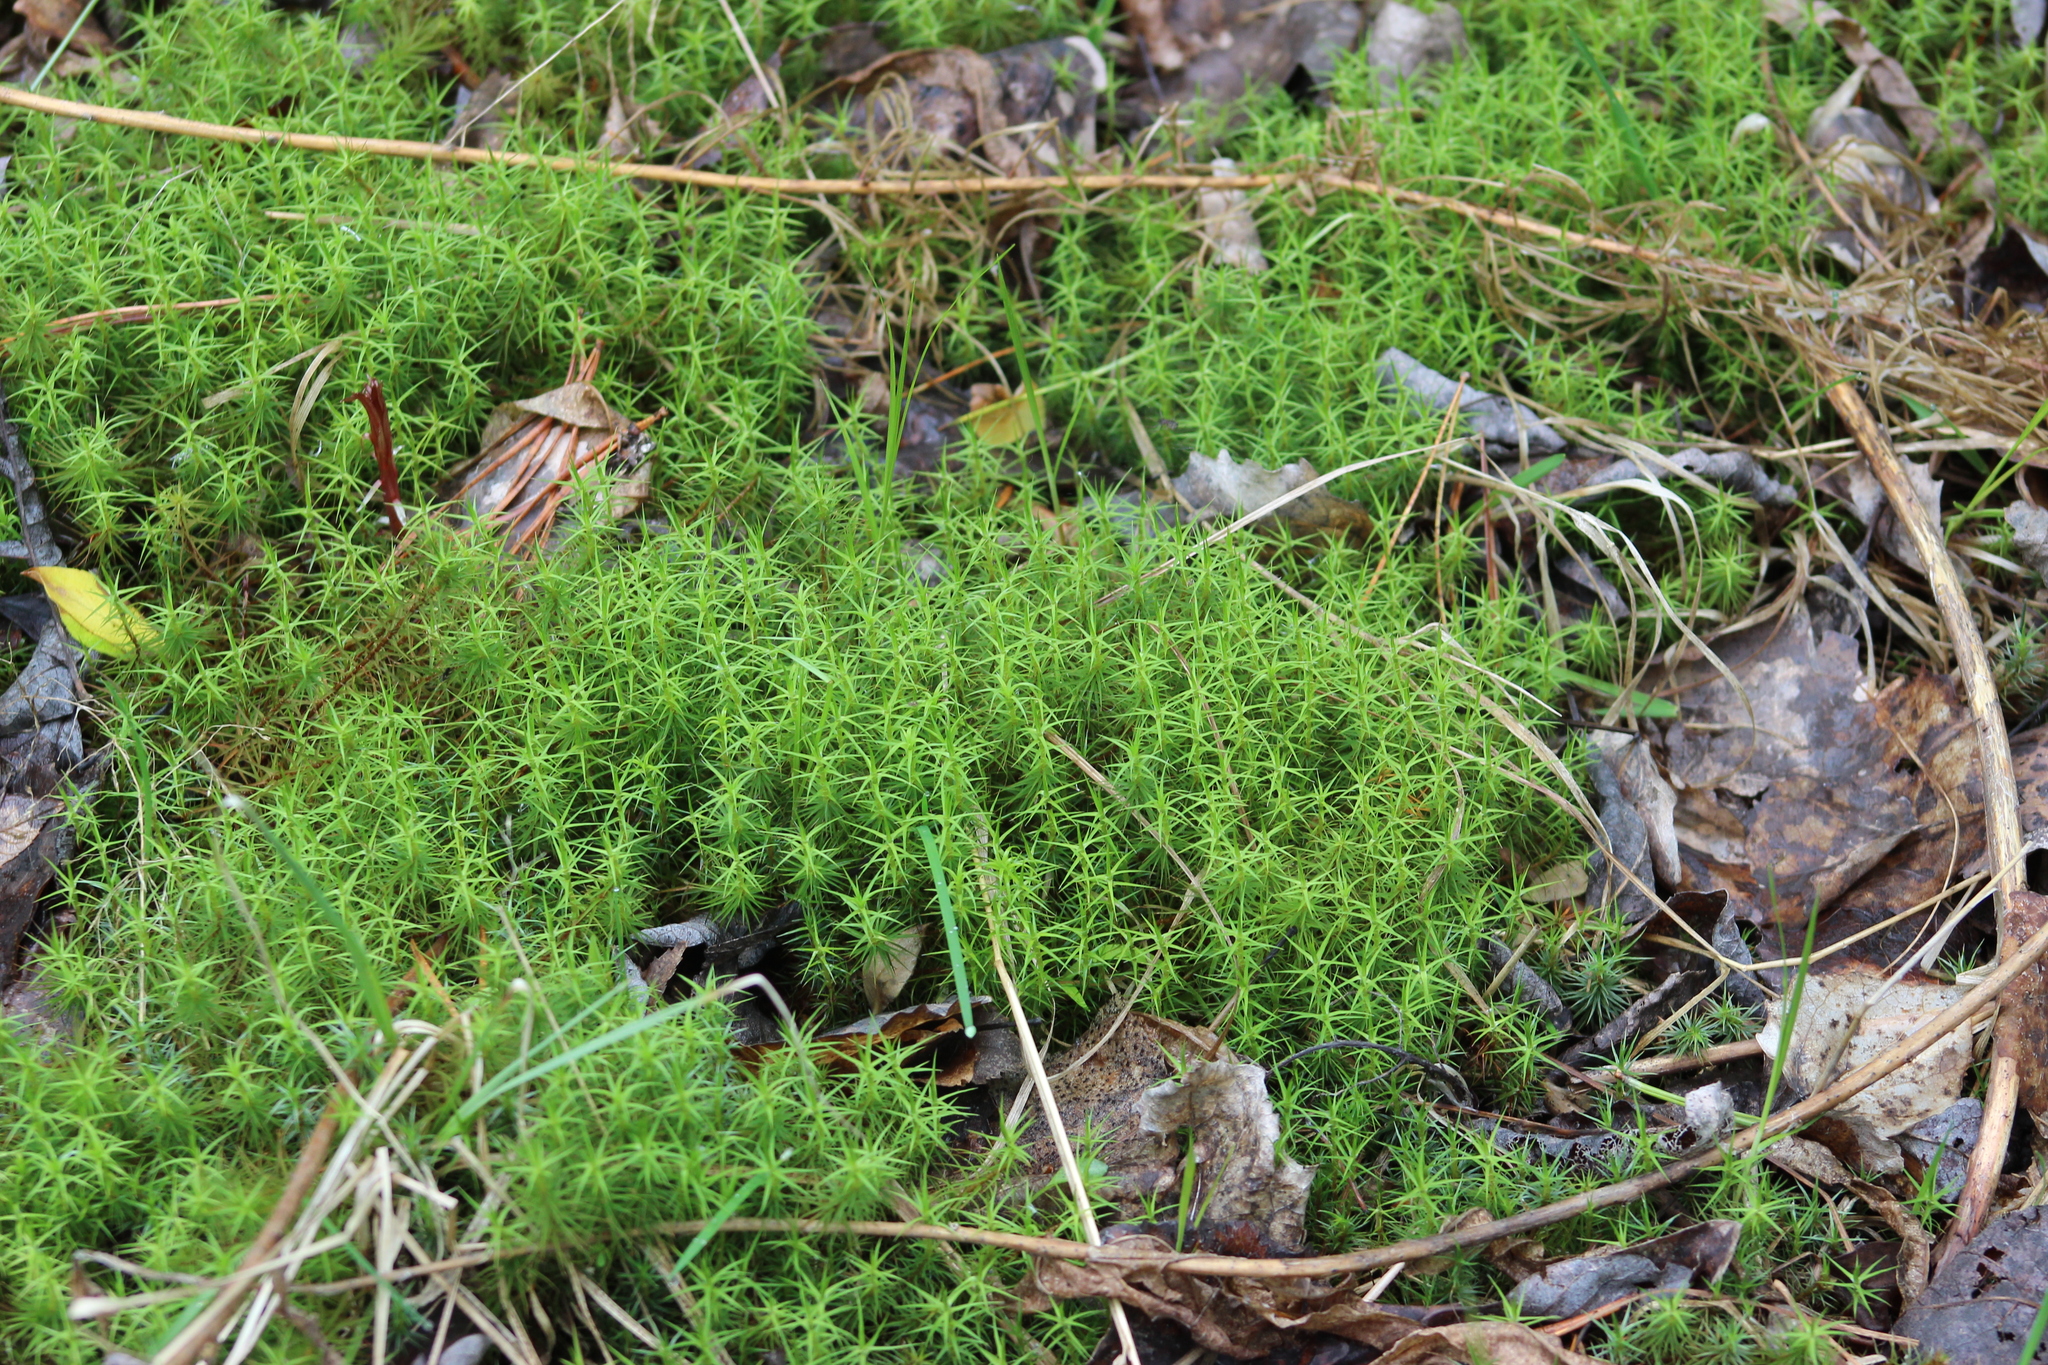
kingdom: Plantae
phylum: Bryophyta
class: Polytrichopsida
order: Polytrichales
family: Polytrichaceae
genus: Polytrichum
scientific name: Polytrichum commune
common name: Common haircap
